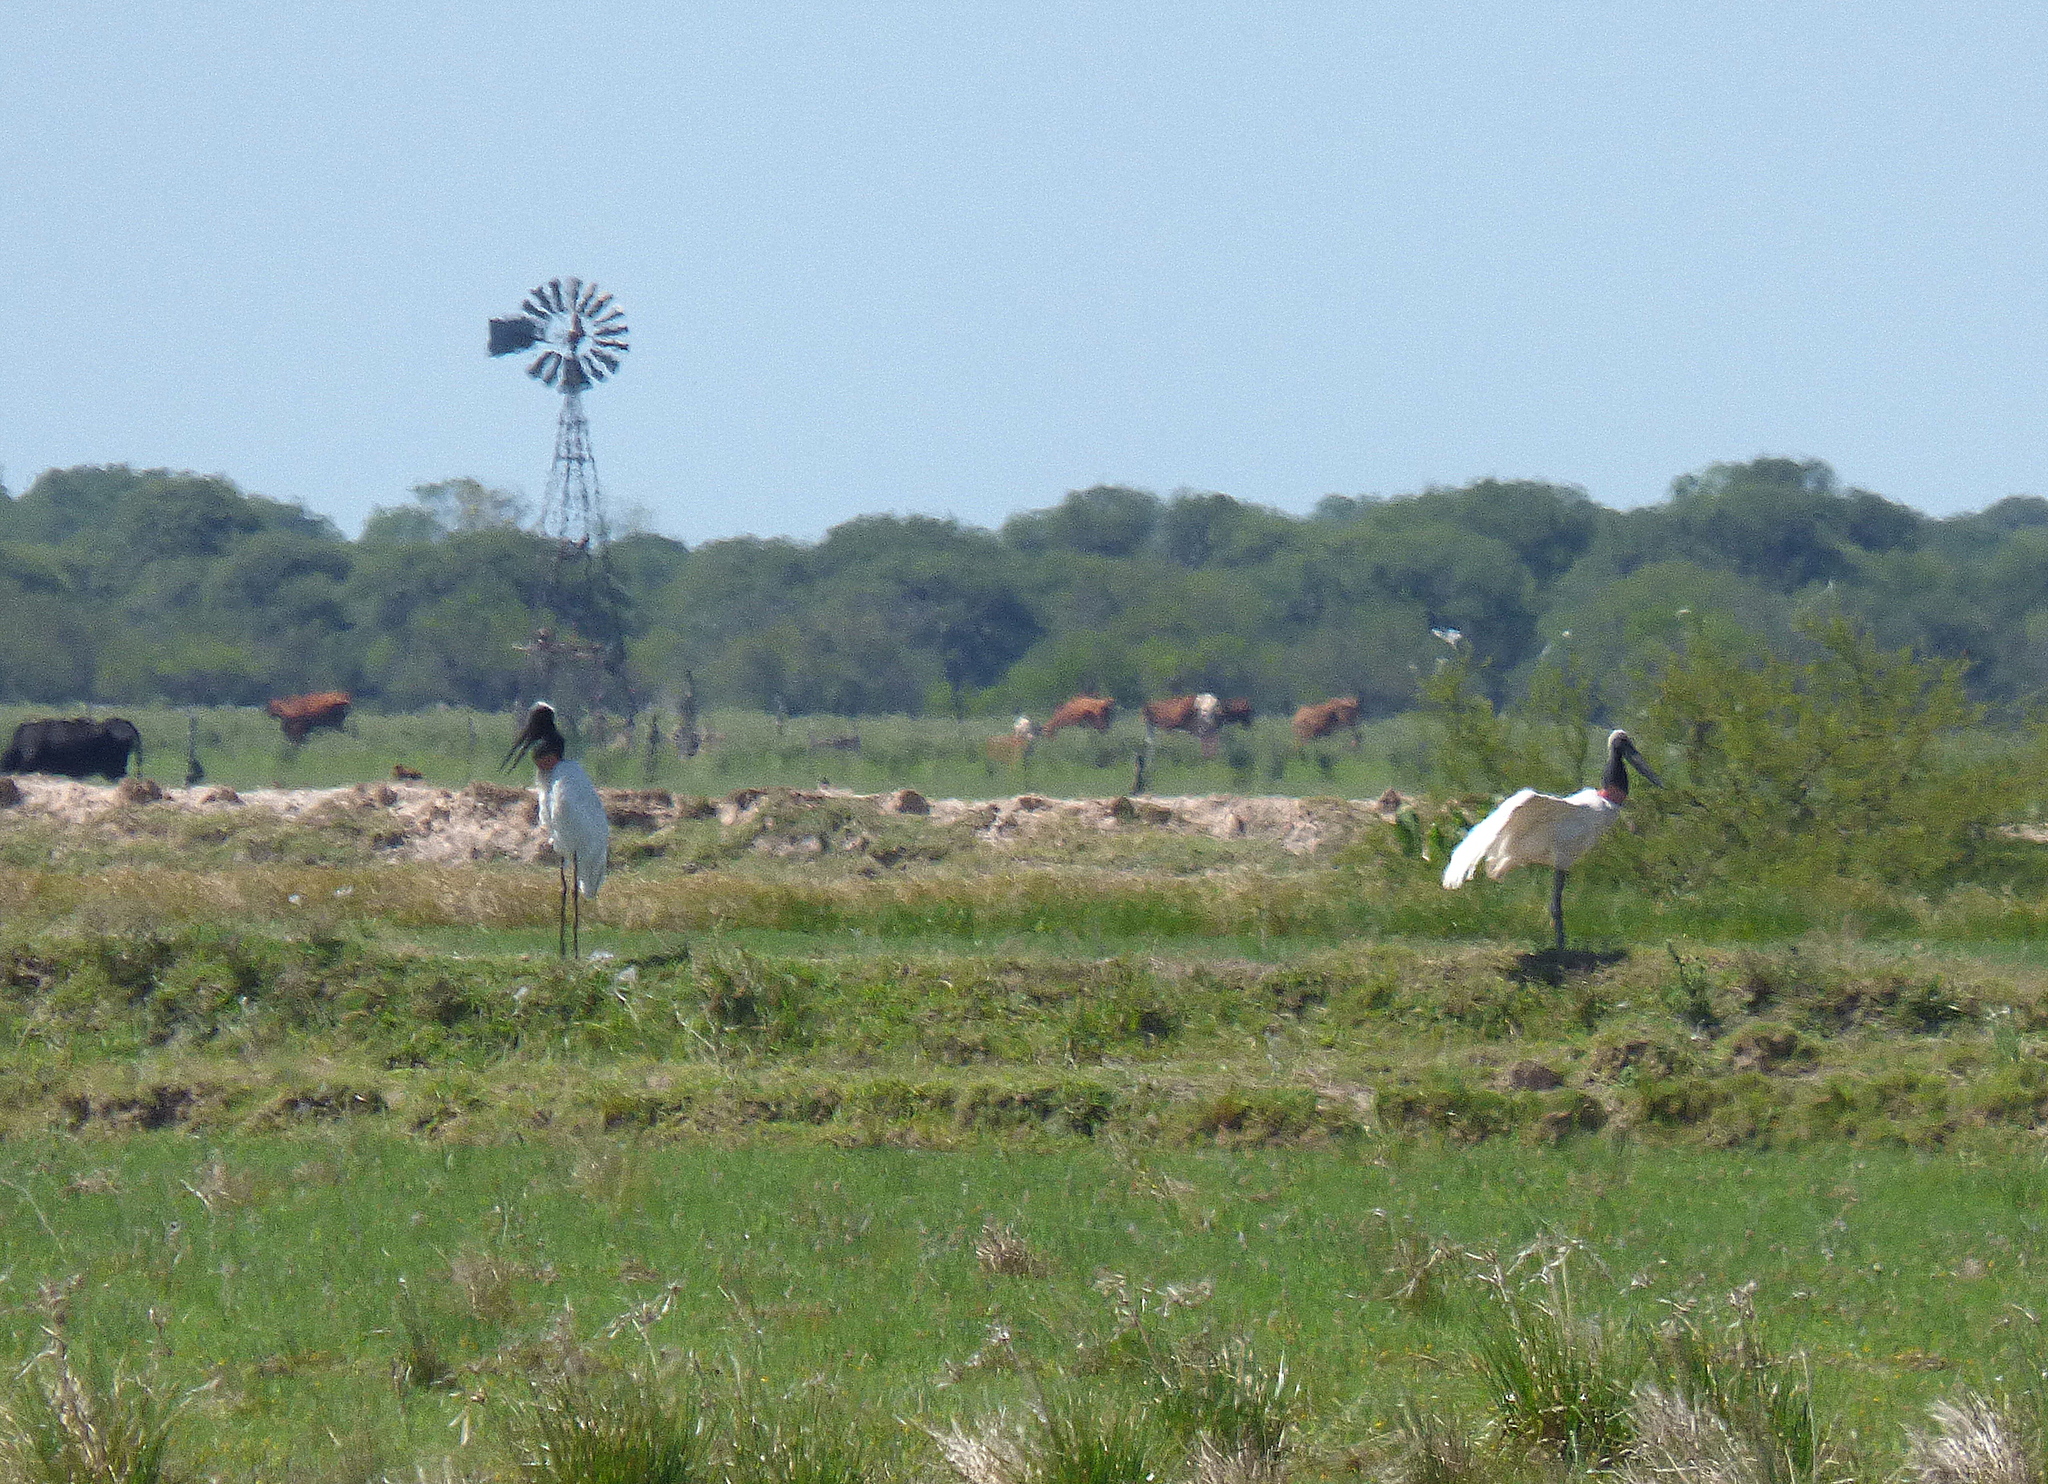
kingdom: Animalia
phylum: Chordata
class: Aves
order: Ciconiiformes
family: Ciconiidae
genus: Jabiru
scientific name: Jabiru mycteria
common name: Jabiru
